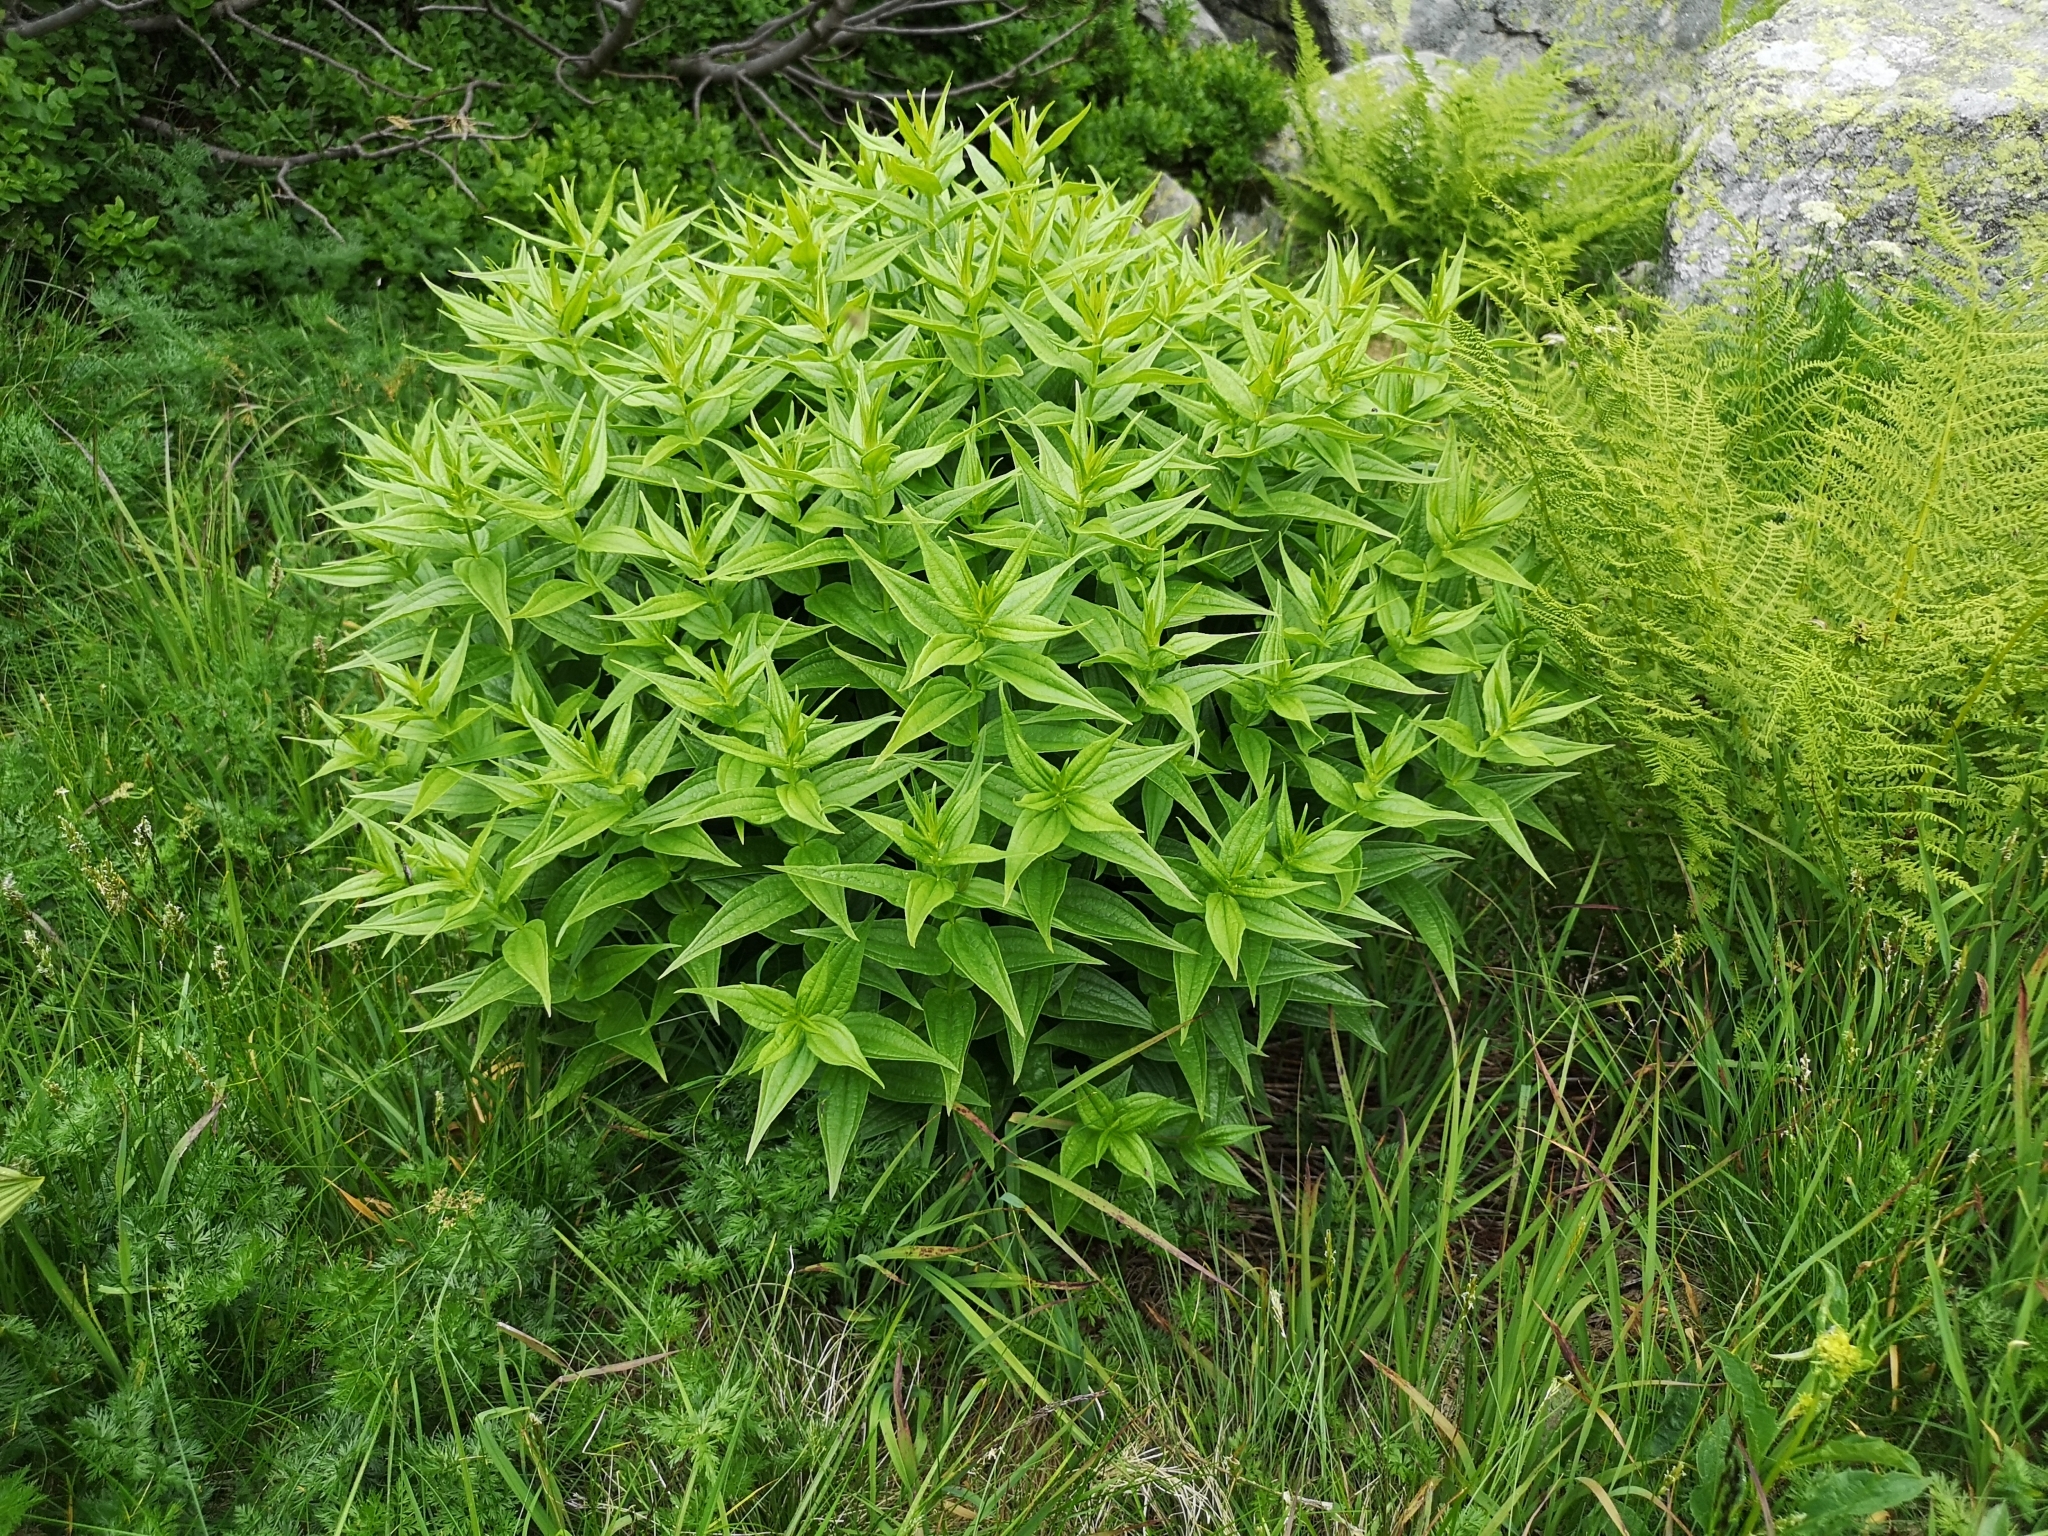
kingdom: Plantae
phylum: Tracheophyta
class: Magnoliopsida
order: Gentianales
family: Gentianaceae
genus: Gentiana
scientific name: Gentiana asclepiadea
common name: Willow gentian
